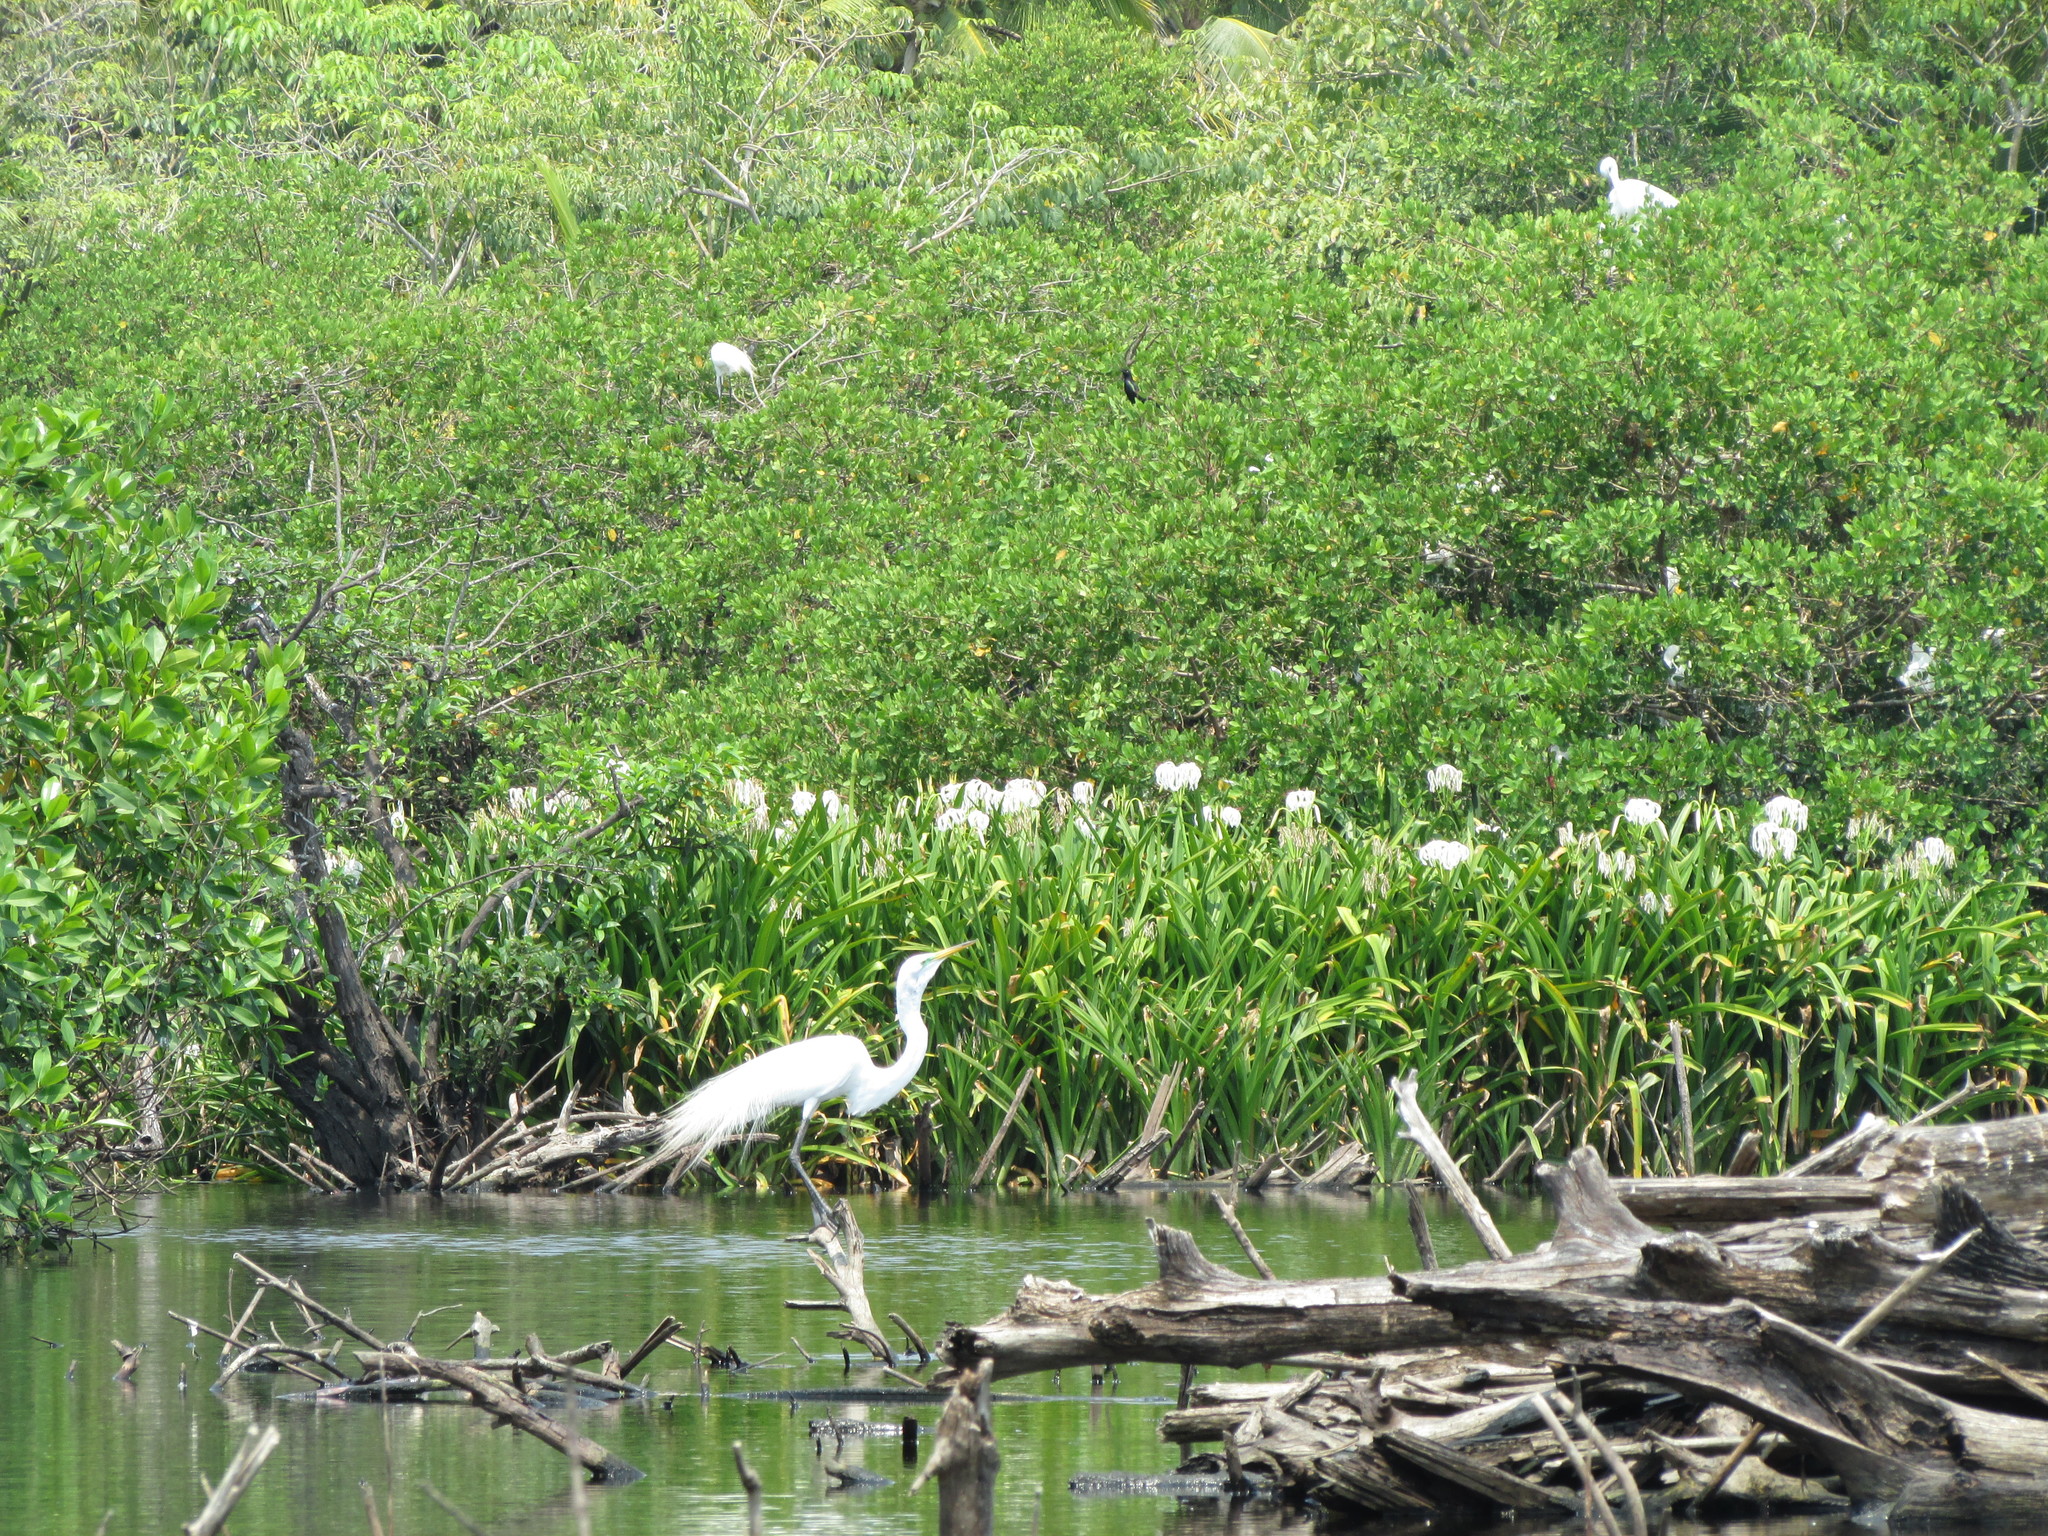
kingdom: Animalia
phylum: Chordata
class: Aves
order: Pelecaniformes
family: Ardeidae
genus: Ardea
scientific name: Ardea alba
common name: Great egret
